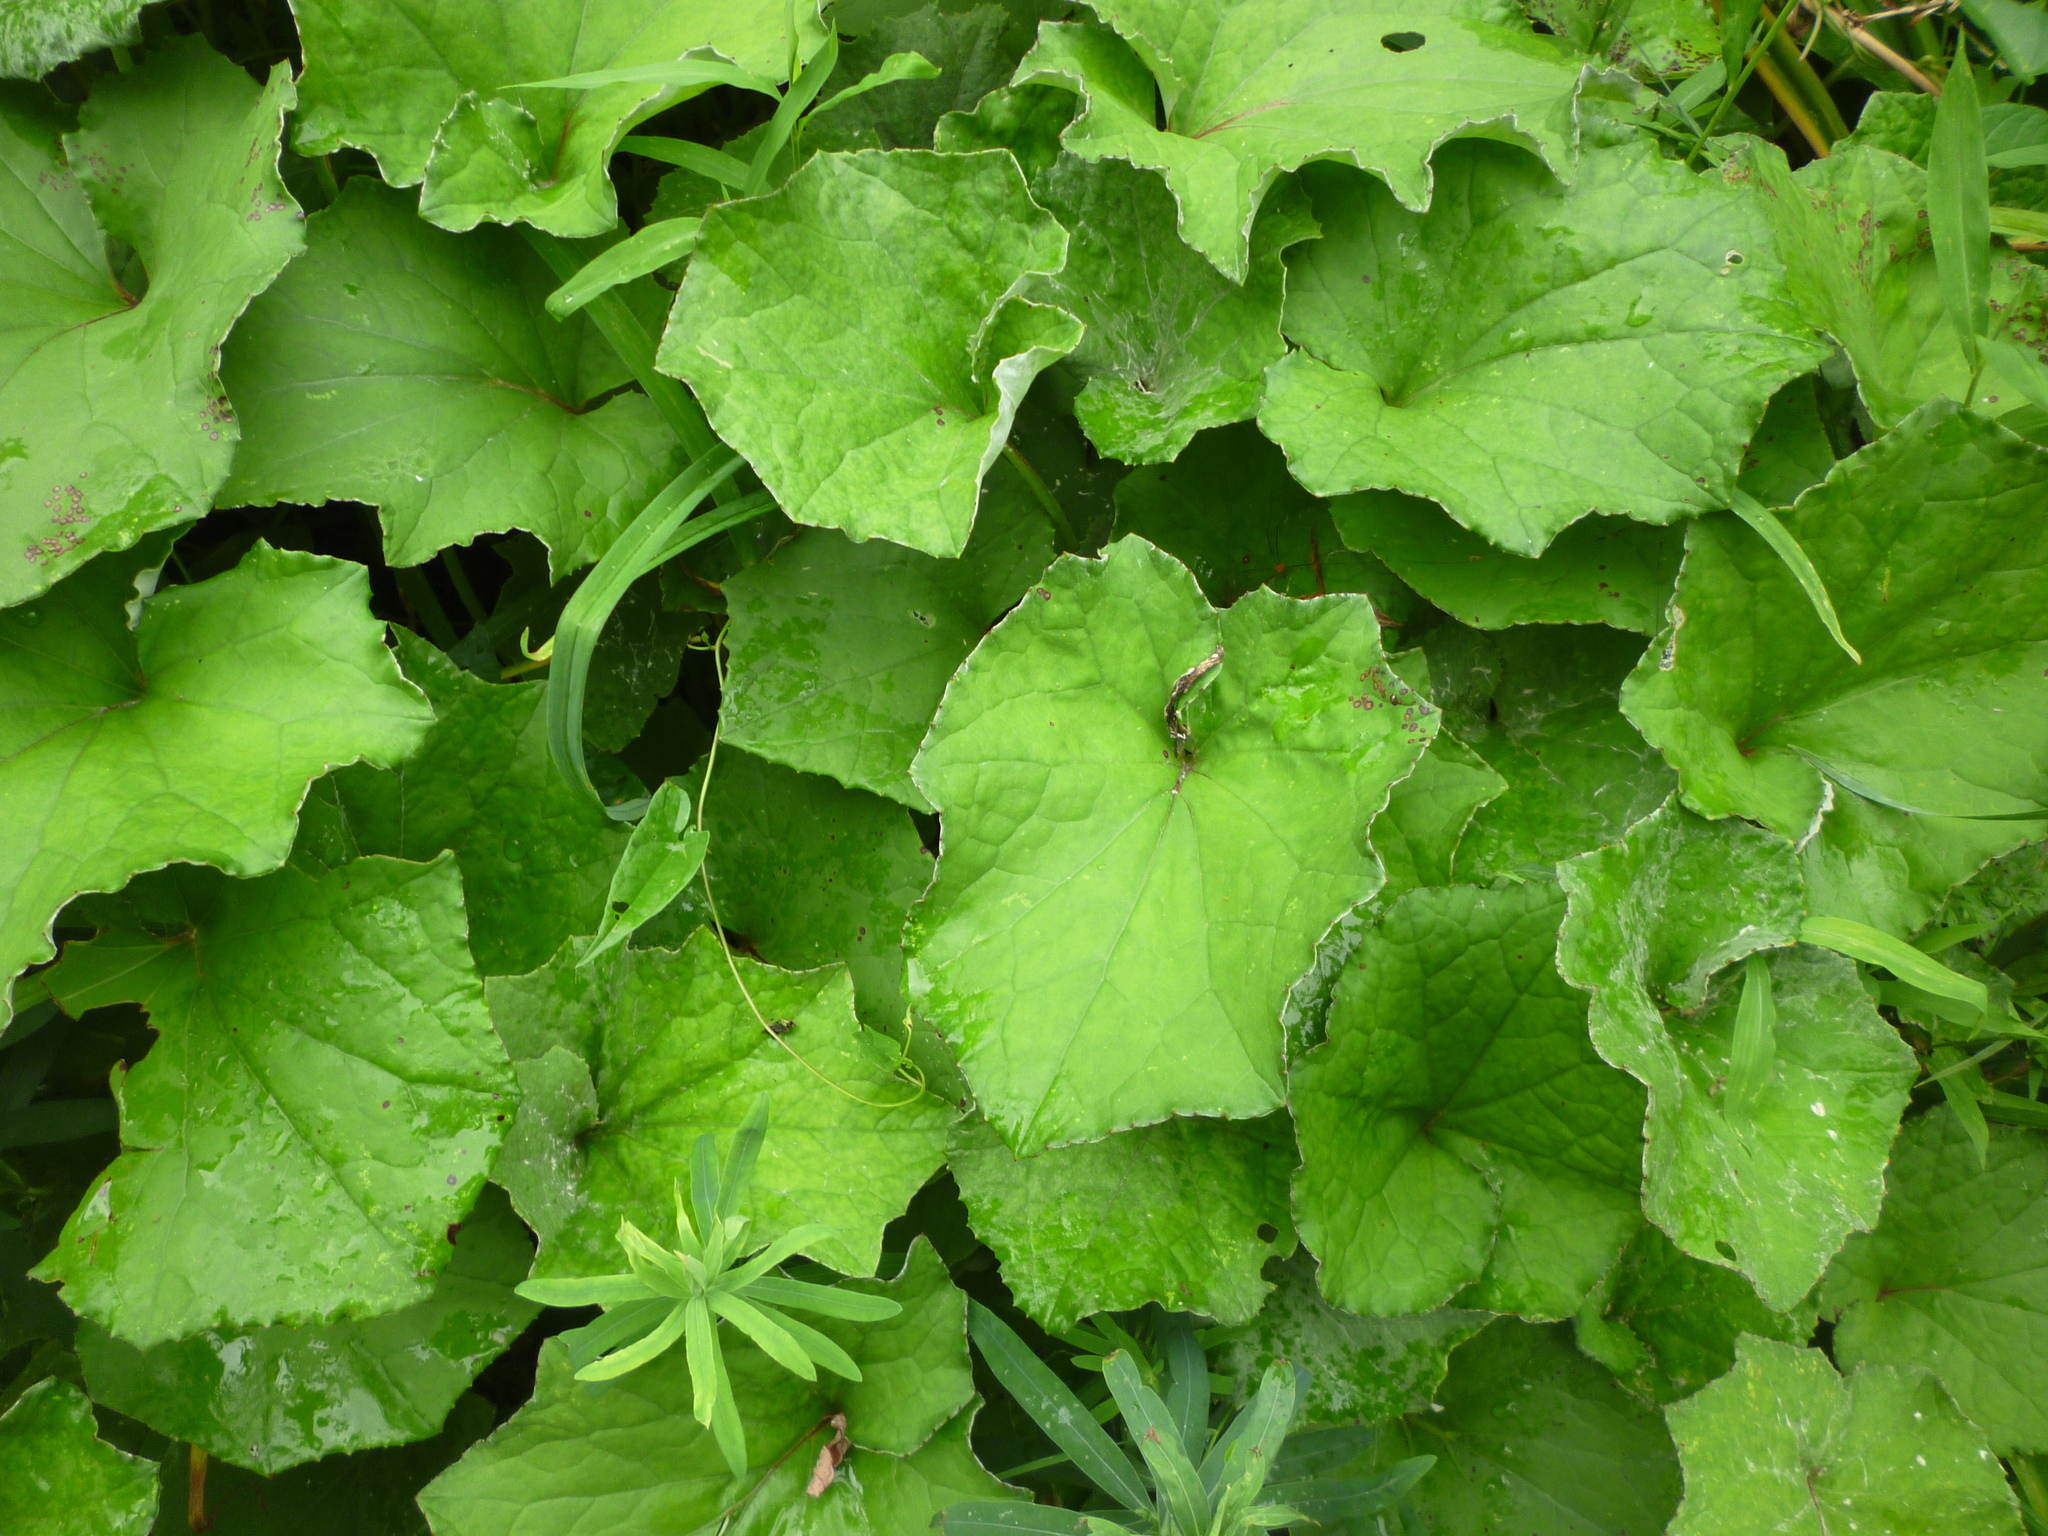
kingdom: Plantae
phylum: Tracheophyta
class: Magnoliopsida
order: Asterales
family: Asteraceae
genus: Tussilago
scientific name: Tussilago farfara
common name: Coltsfoot
